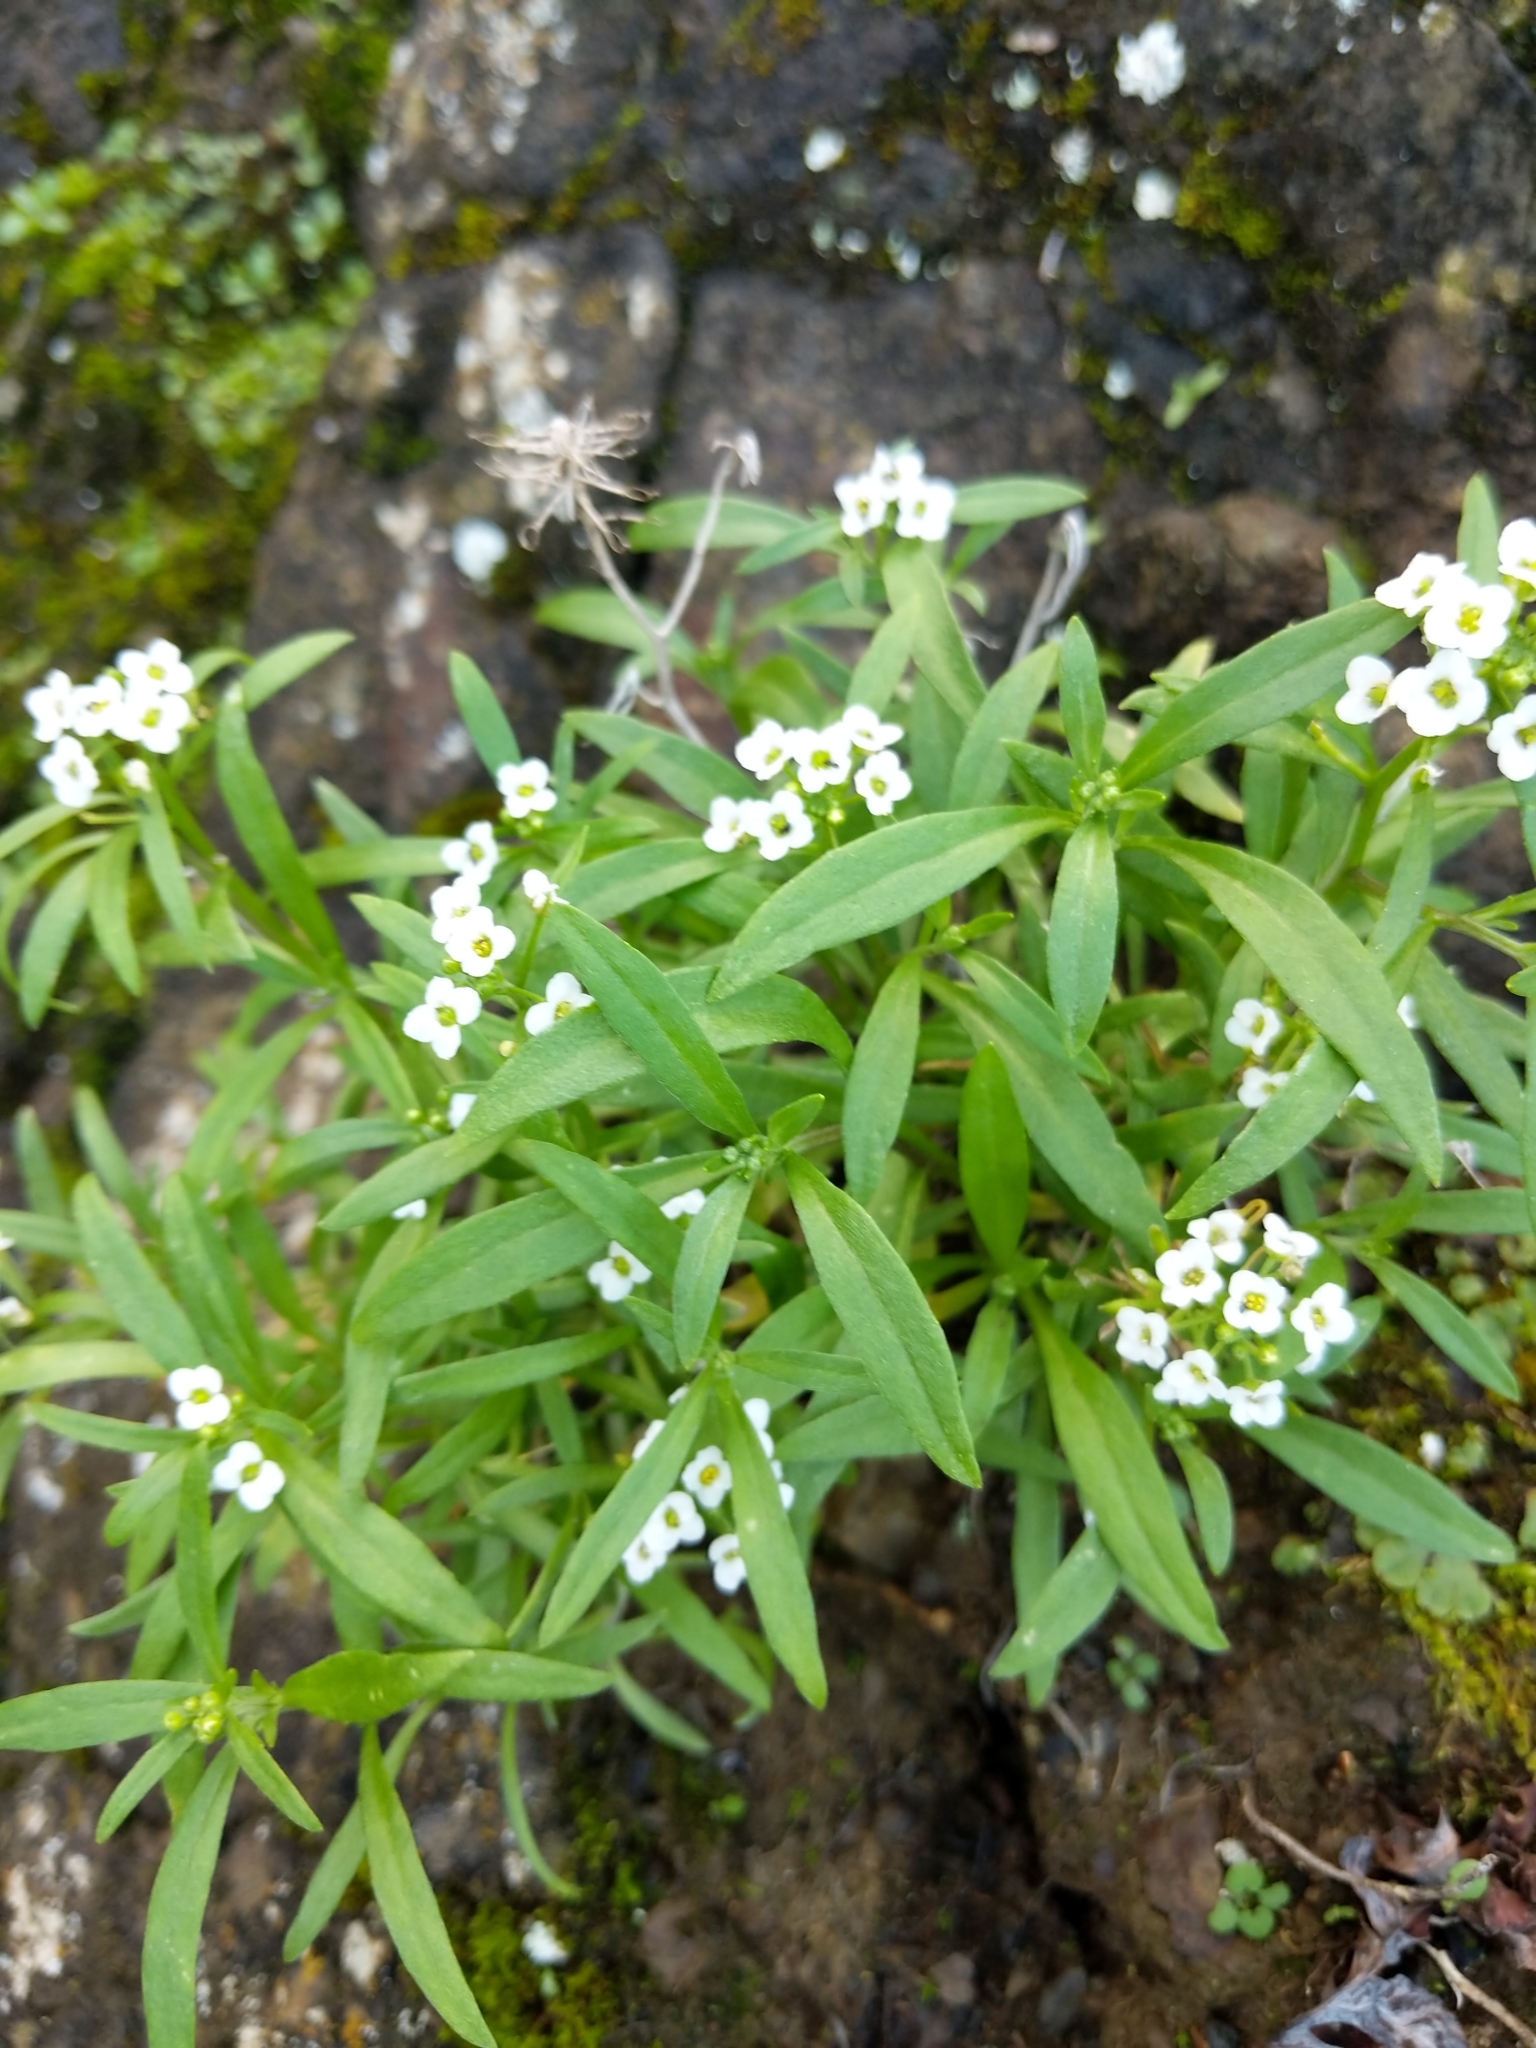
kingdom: Plantae
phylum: Tracheophyta
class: Magnoliopsida
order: Brassicales
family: Brassicaceae
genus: Lobularia
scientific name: Lobularia maritima
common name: Sweet alison
